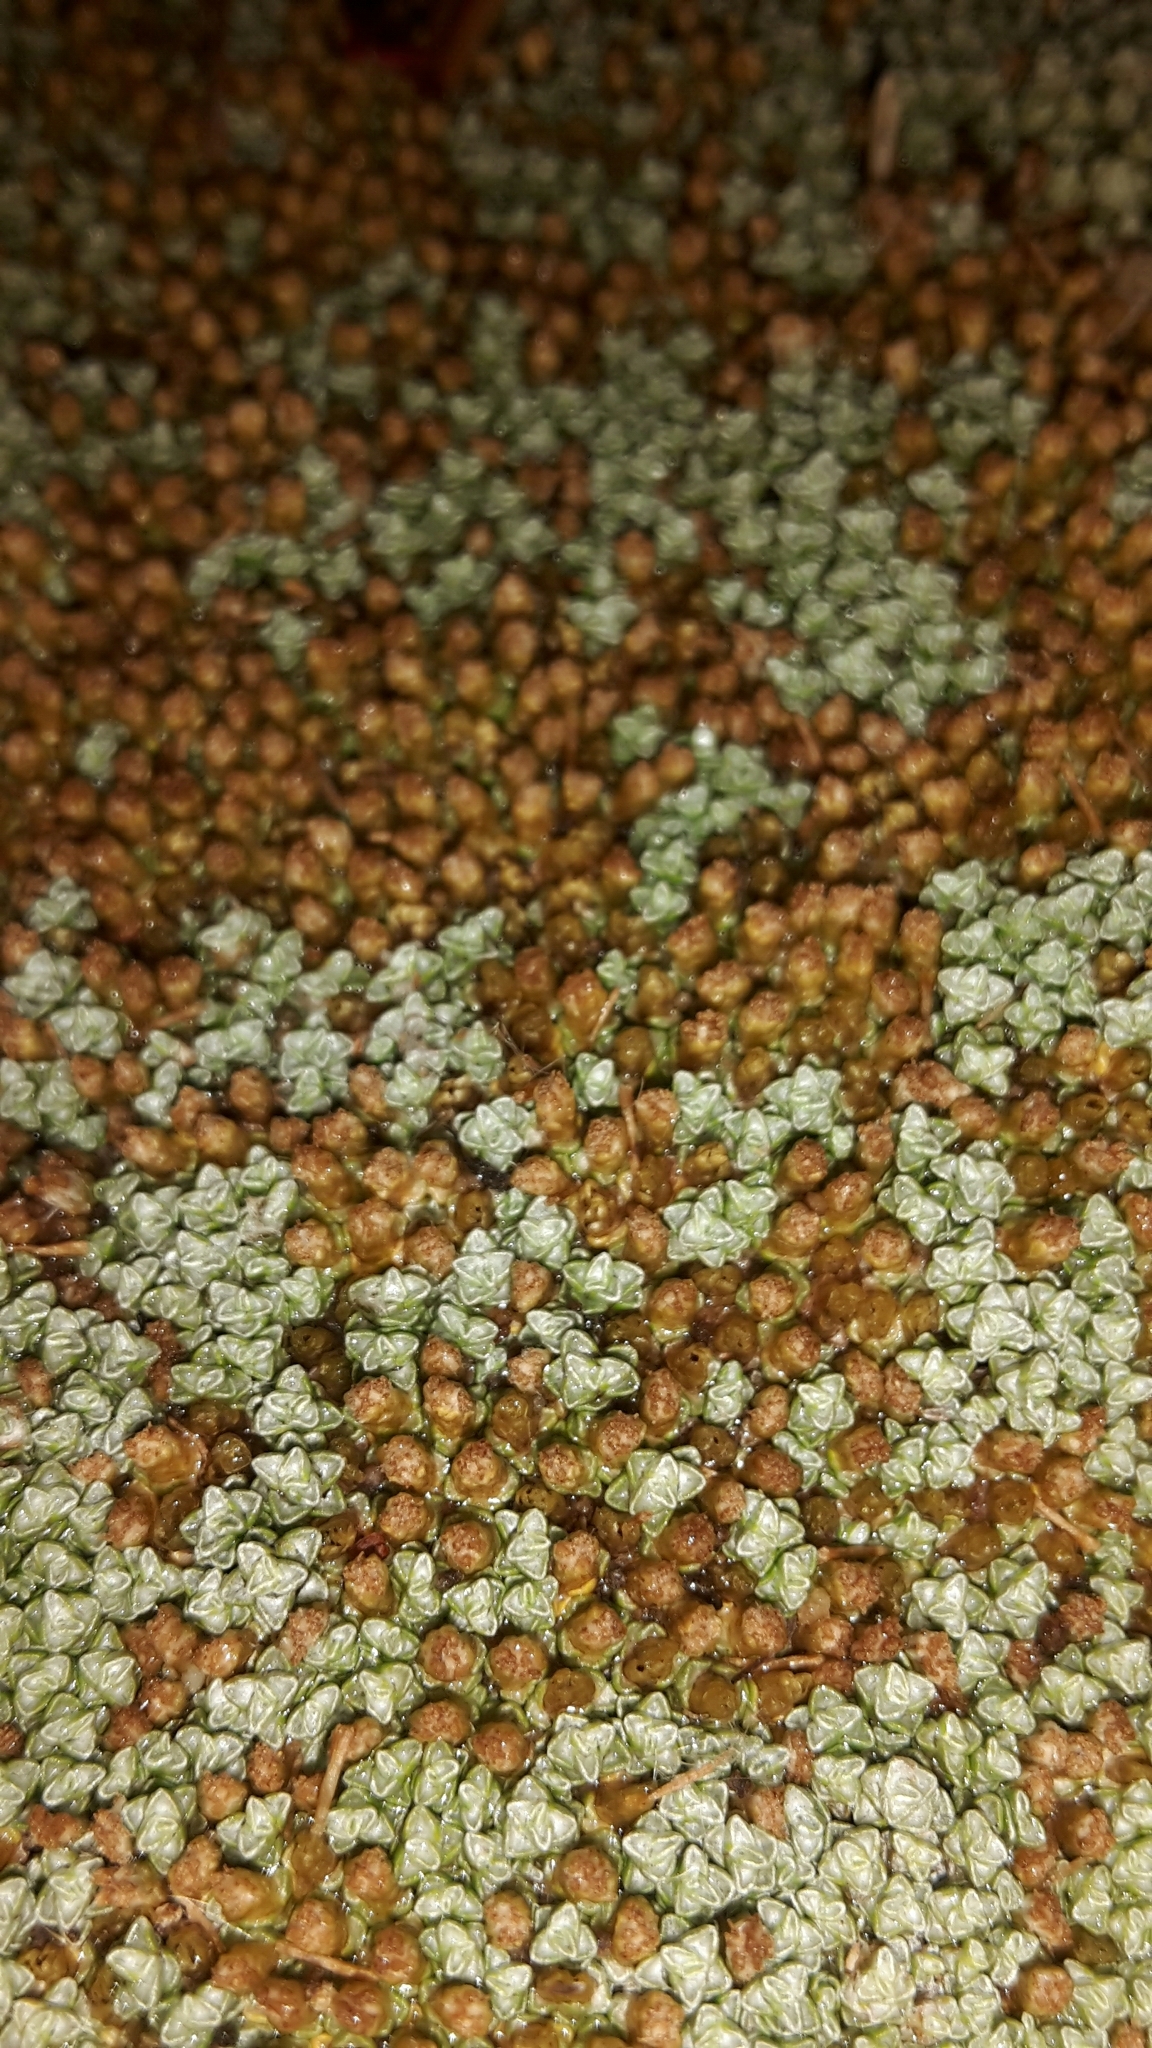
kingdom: Plantae
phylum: Tracheophyta
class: Magnoliopsida
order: Asterales
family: Asteraceae
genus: Raoulia
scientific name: Raoulia australis
